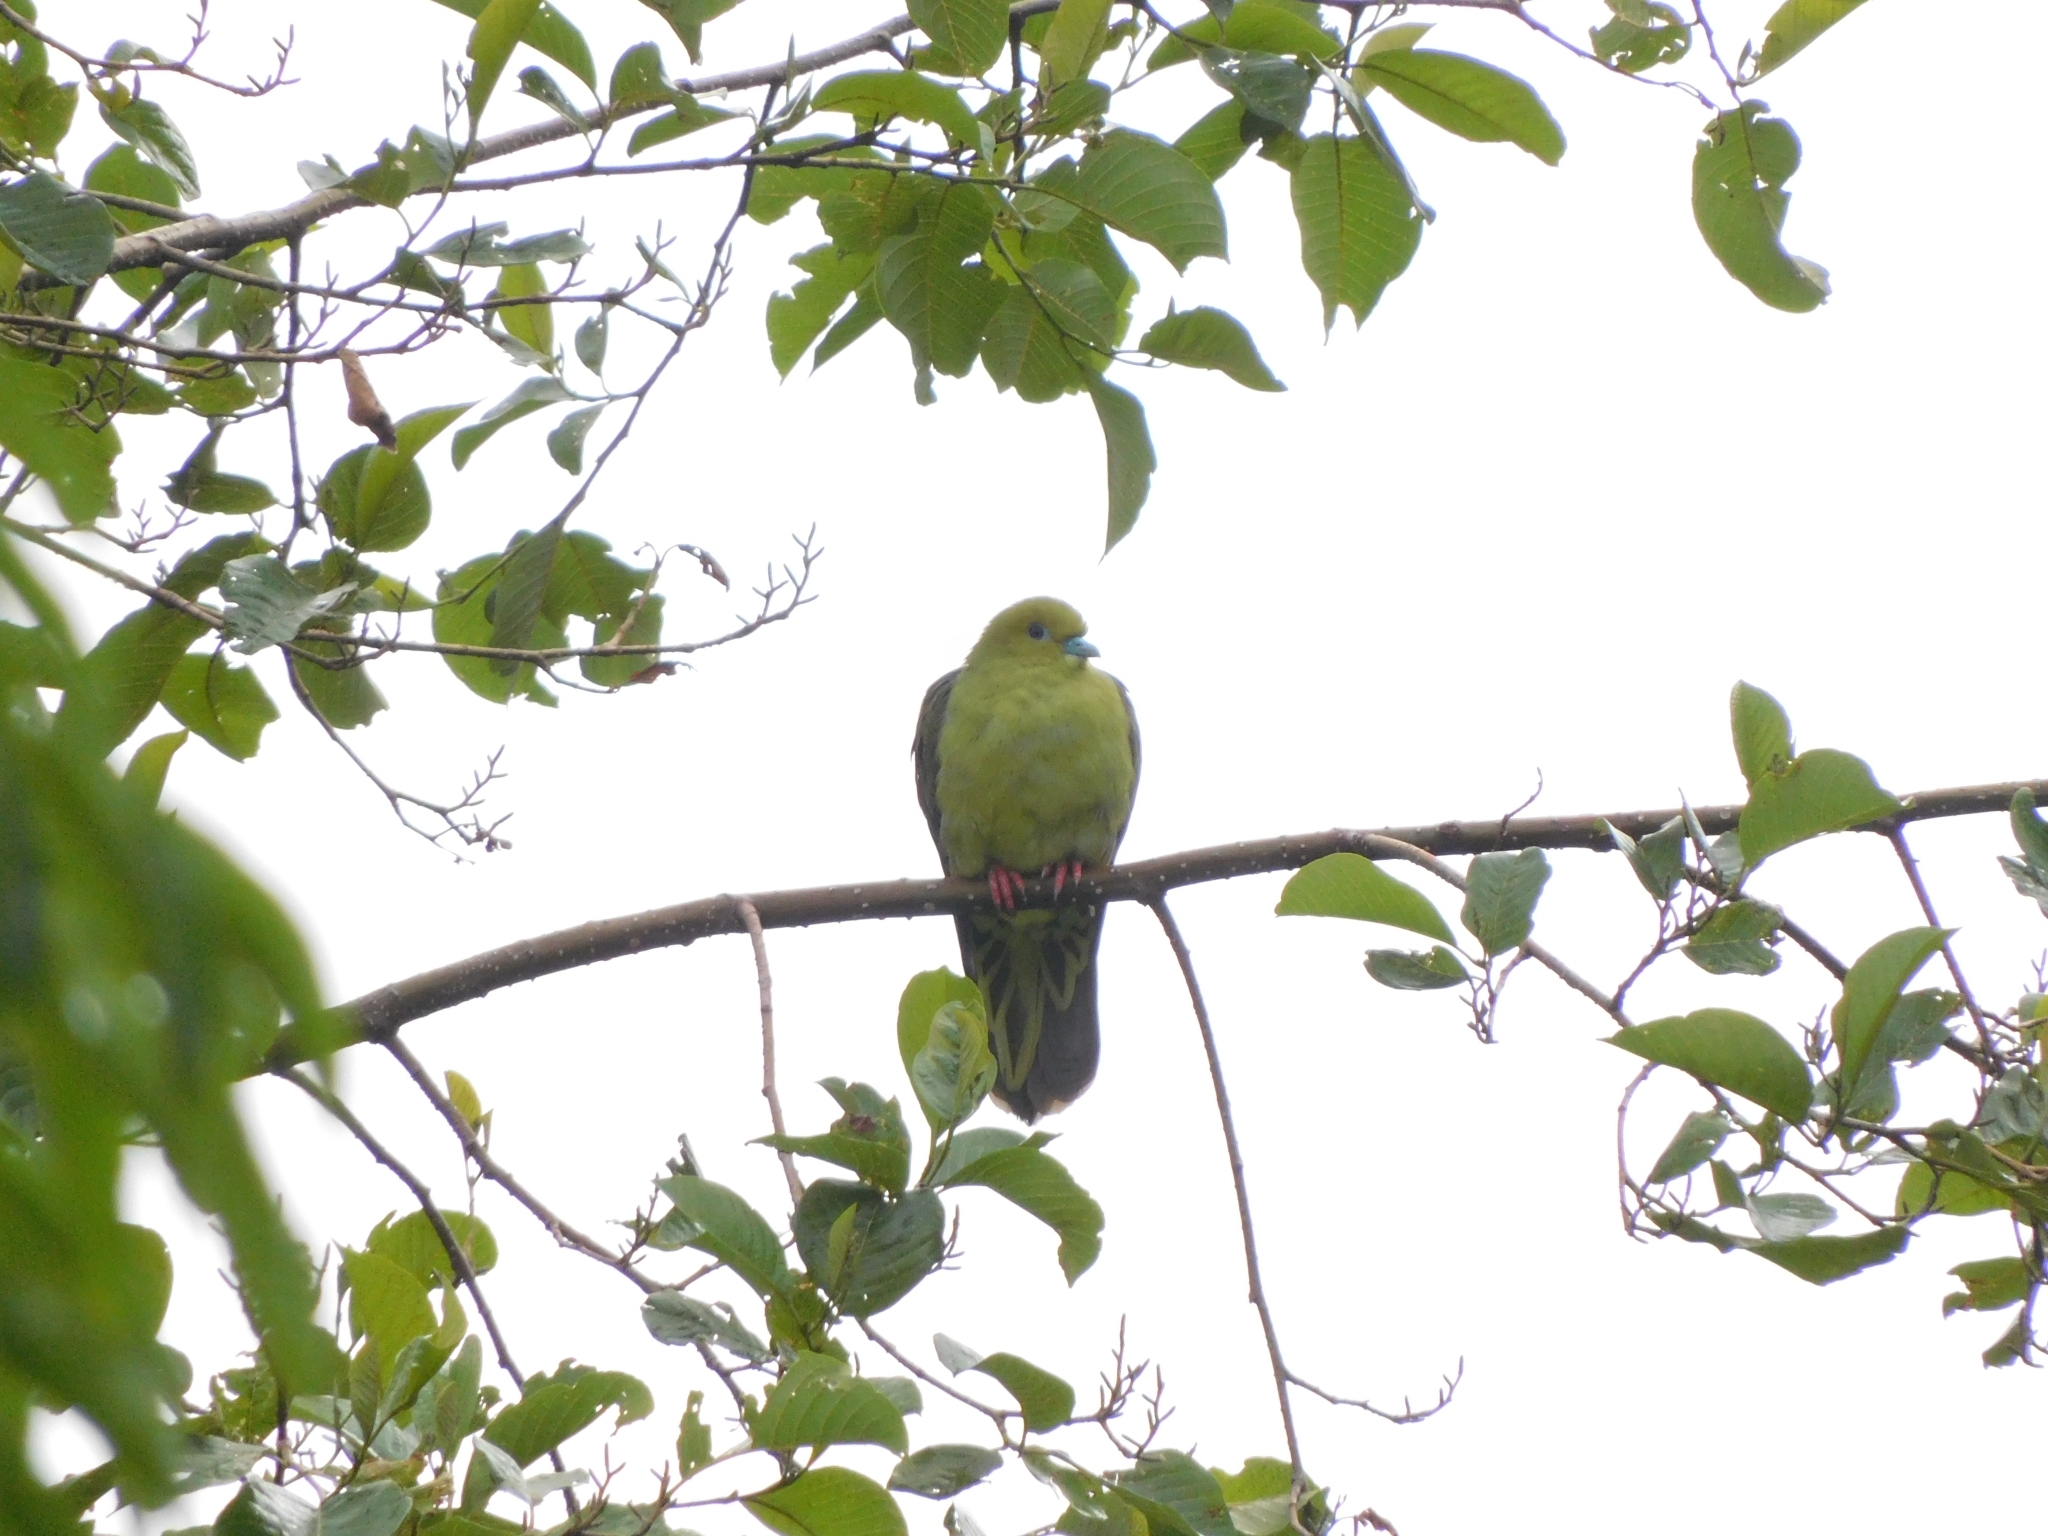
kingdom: Animalia
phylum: Chordata
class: Aves
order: Columbiformes
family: Columbidae
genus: Treron
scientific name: Treron sphenurus
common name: Wedge-tailed green pigeon
